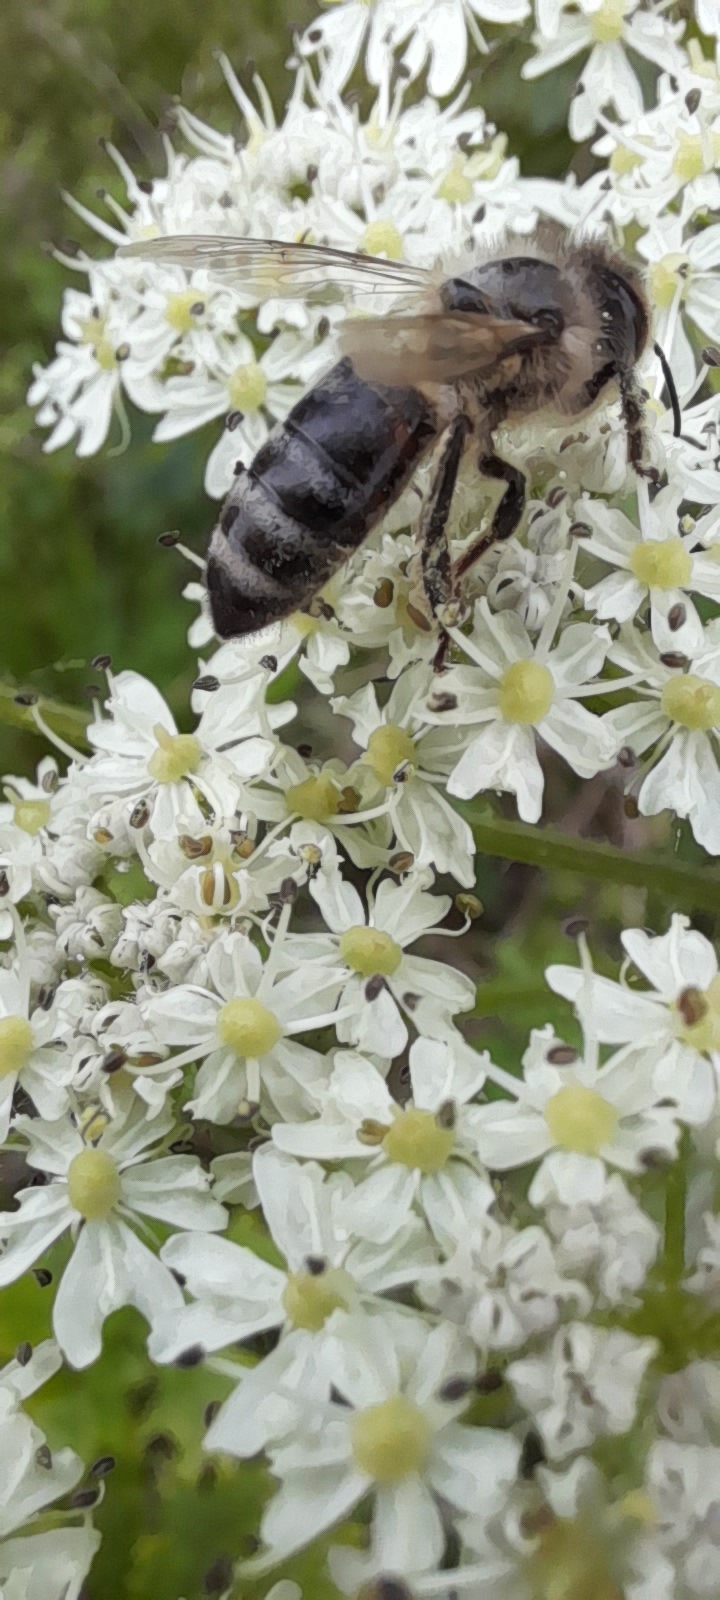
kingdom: Animalia
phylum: Arthropoda
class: Insecta
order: Hymenoptera
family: Apidae
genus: Apis
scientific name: Apis mellifera
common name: Honey bee
